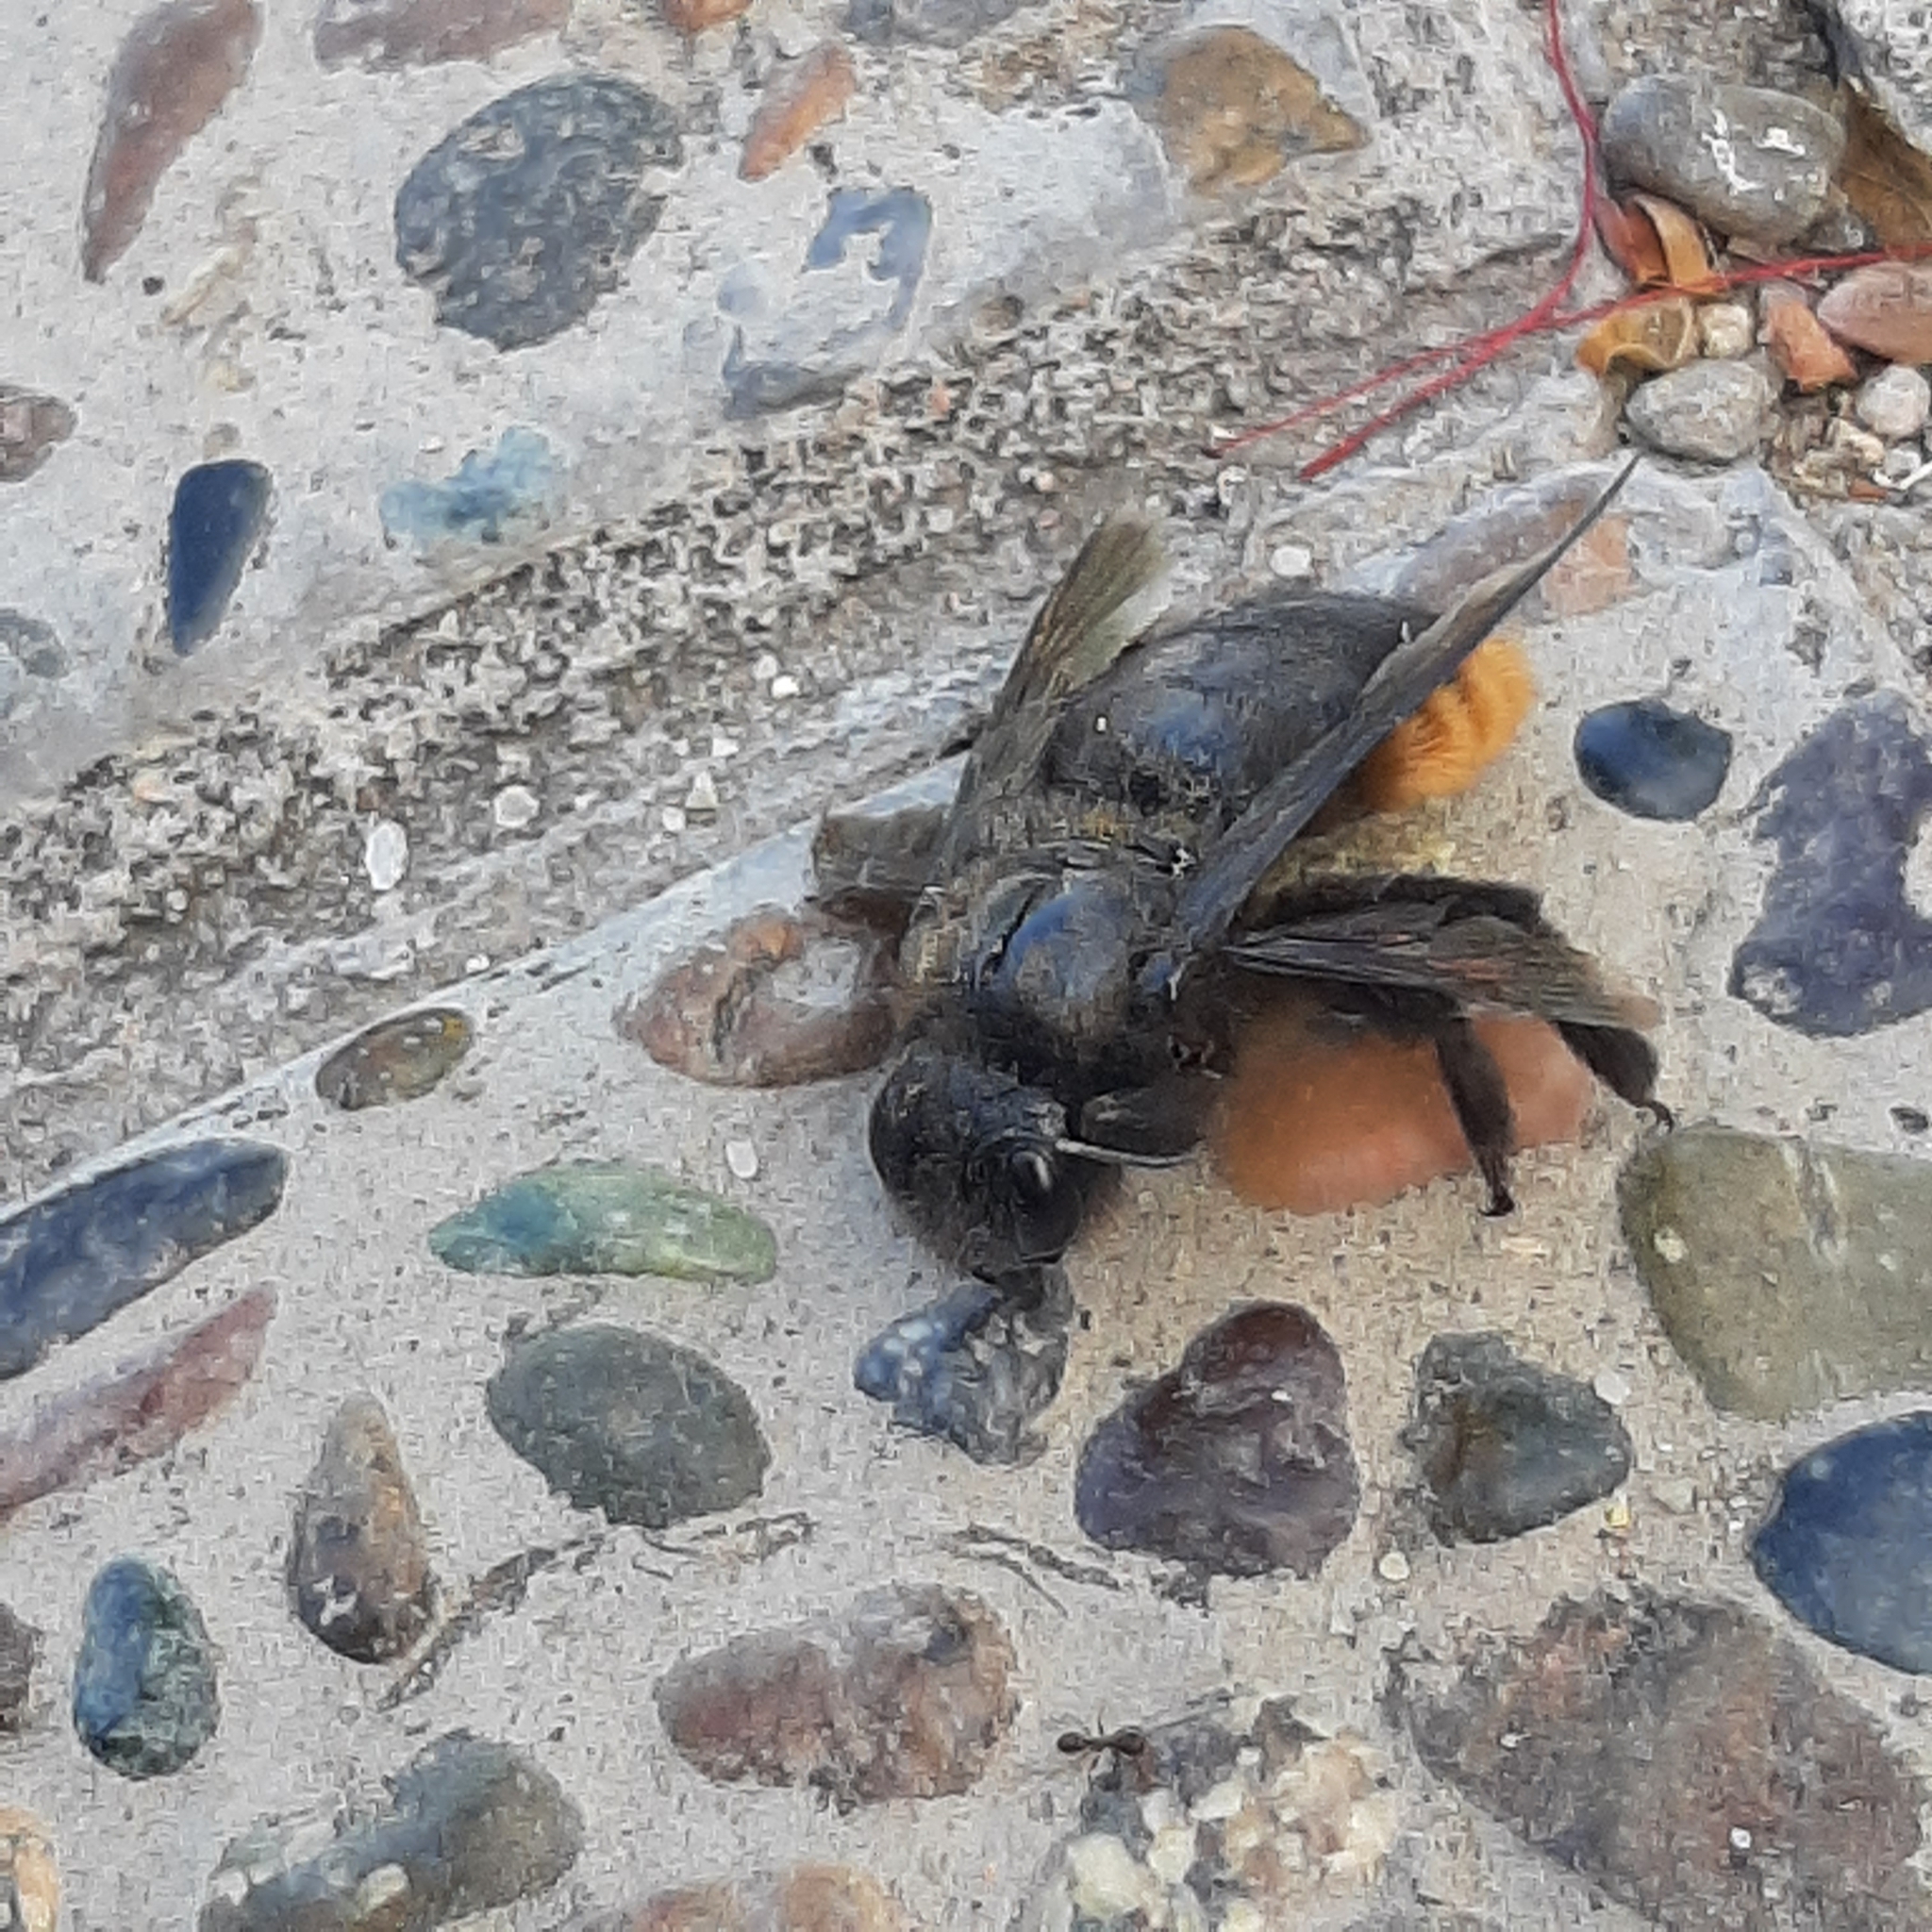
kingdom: Animalia
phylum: Arthropoda
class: Insecta
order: Hymenoptera
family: Apidae
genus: Xylocopa
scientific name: Xylocopa augusti
